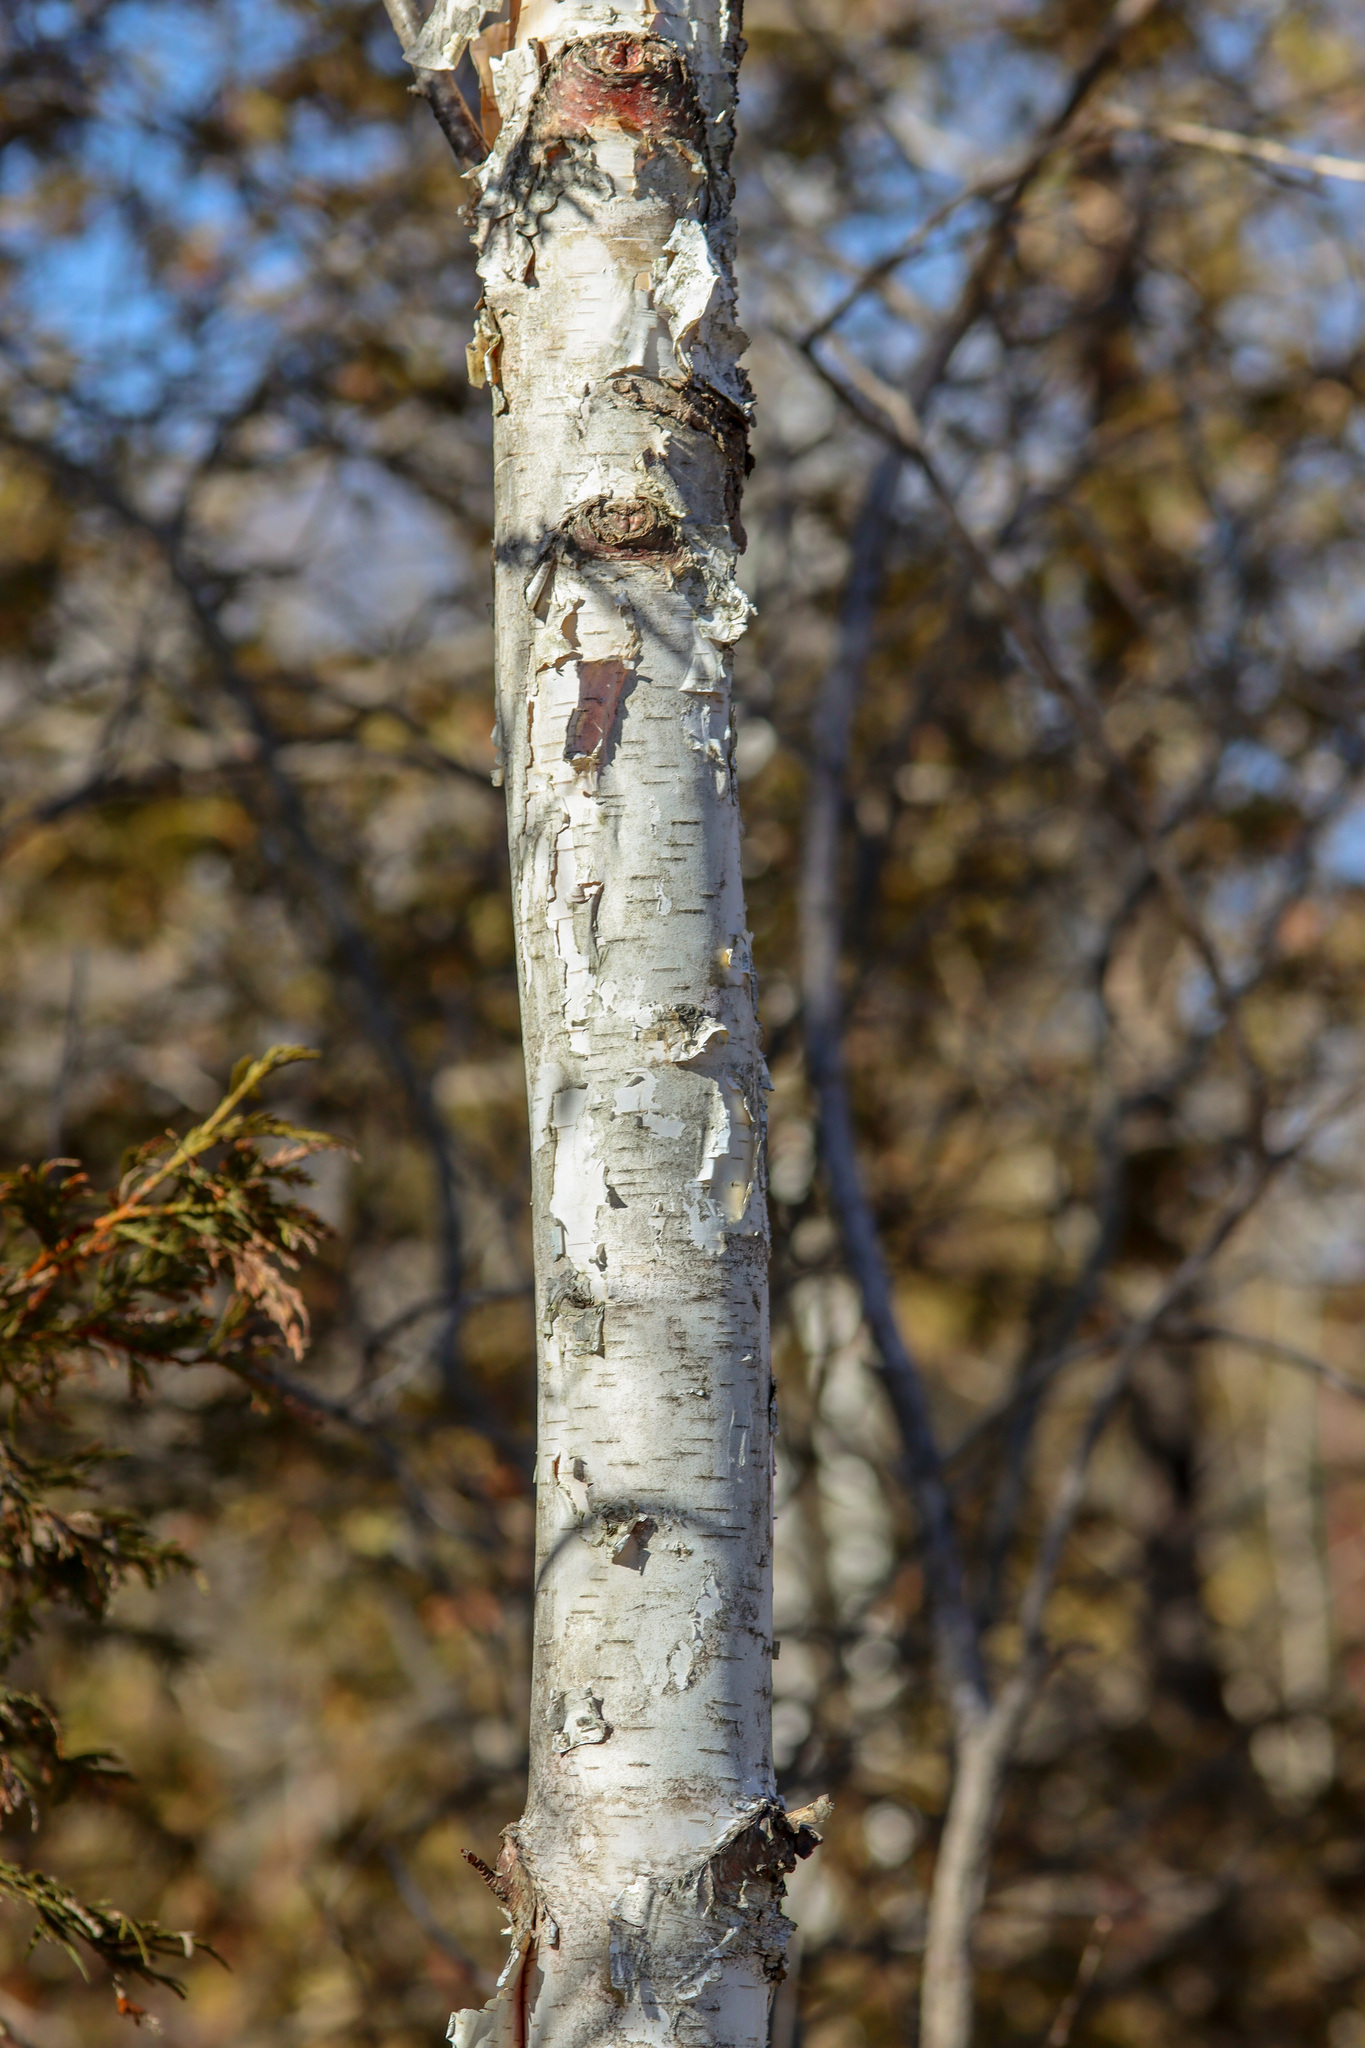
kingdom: Plantae
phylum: Tracheophyta
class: Magnoliopsida
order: Fagales
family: Betulaceae
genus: Betula
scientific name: Betula papyrifera
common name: Paper birch
